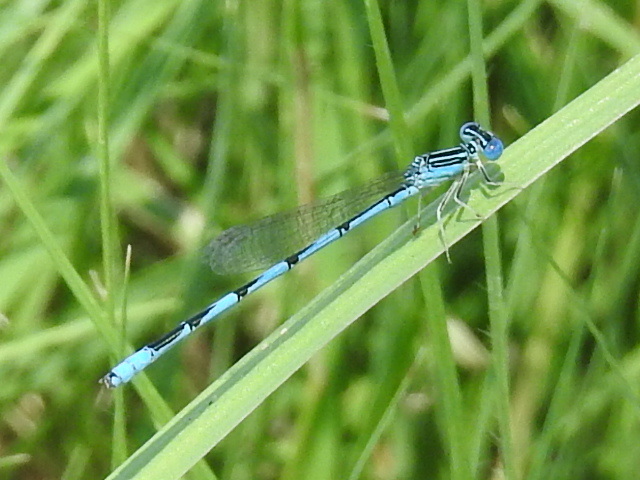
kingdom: Animalia
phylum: Arthropoda
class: Insecta
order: Odonata
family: Coenagrionidae
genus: Enallagma
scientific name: Enallagma basidens
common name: Double-striped bluet
